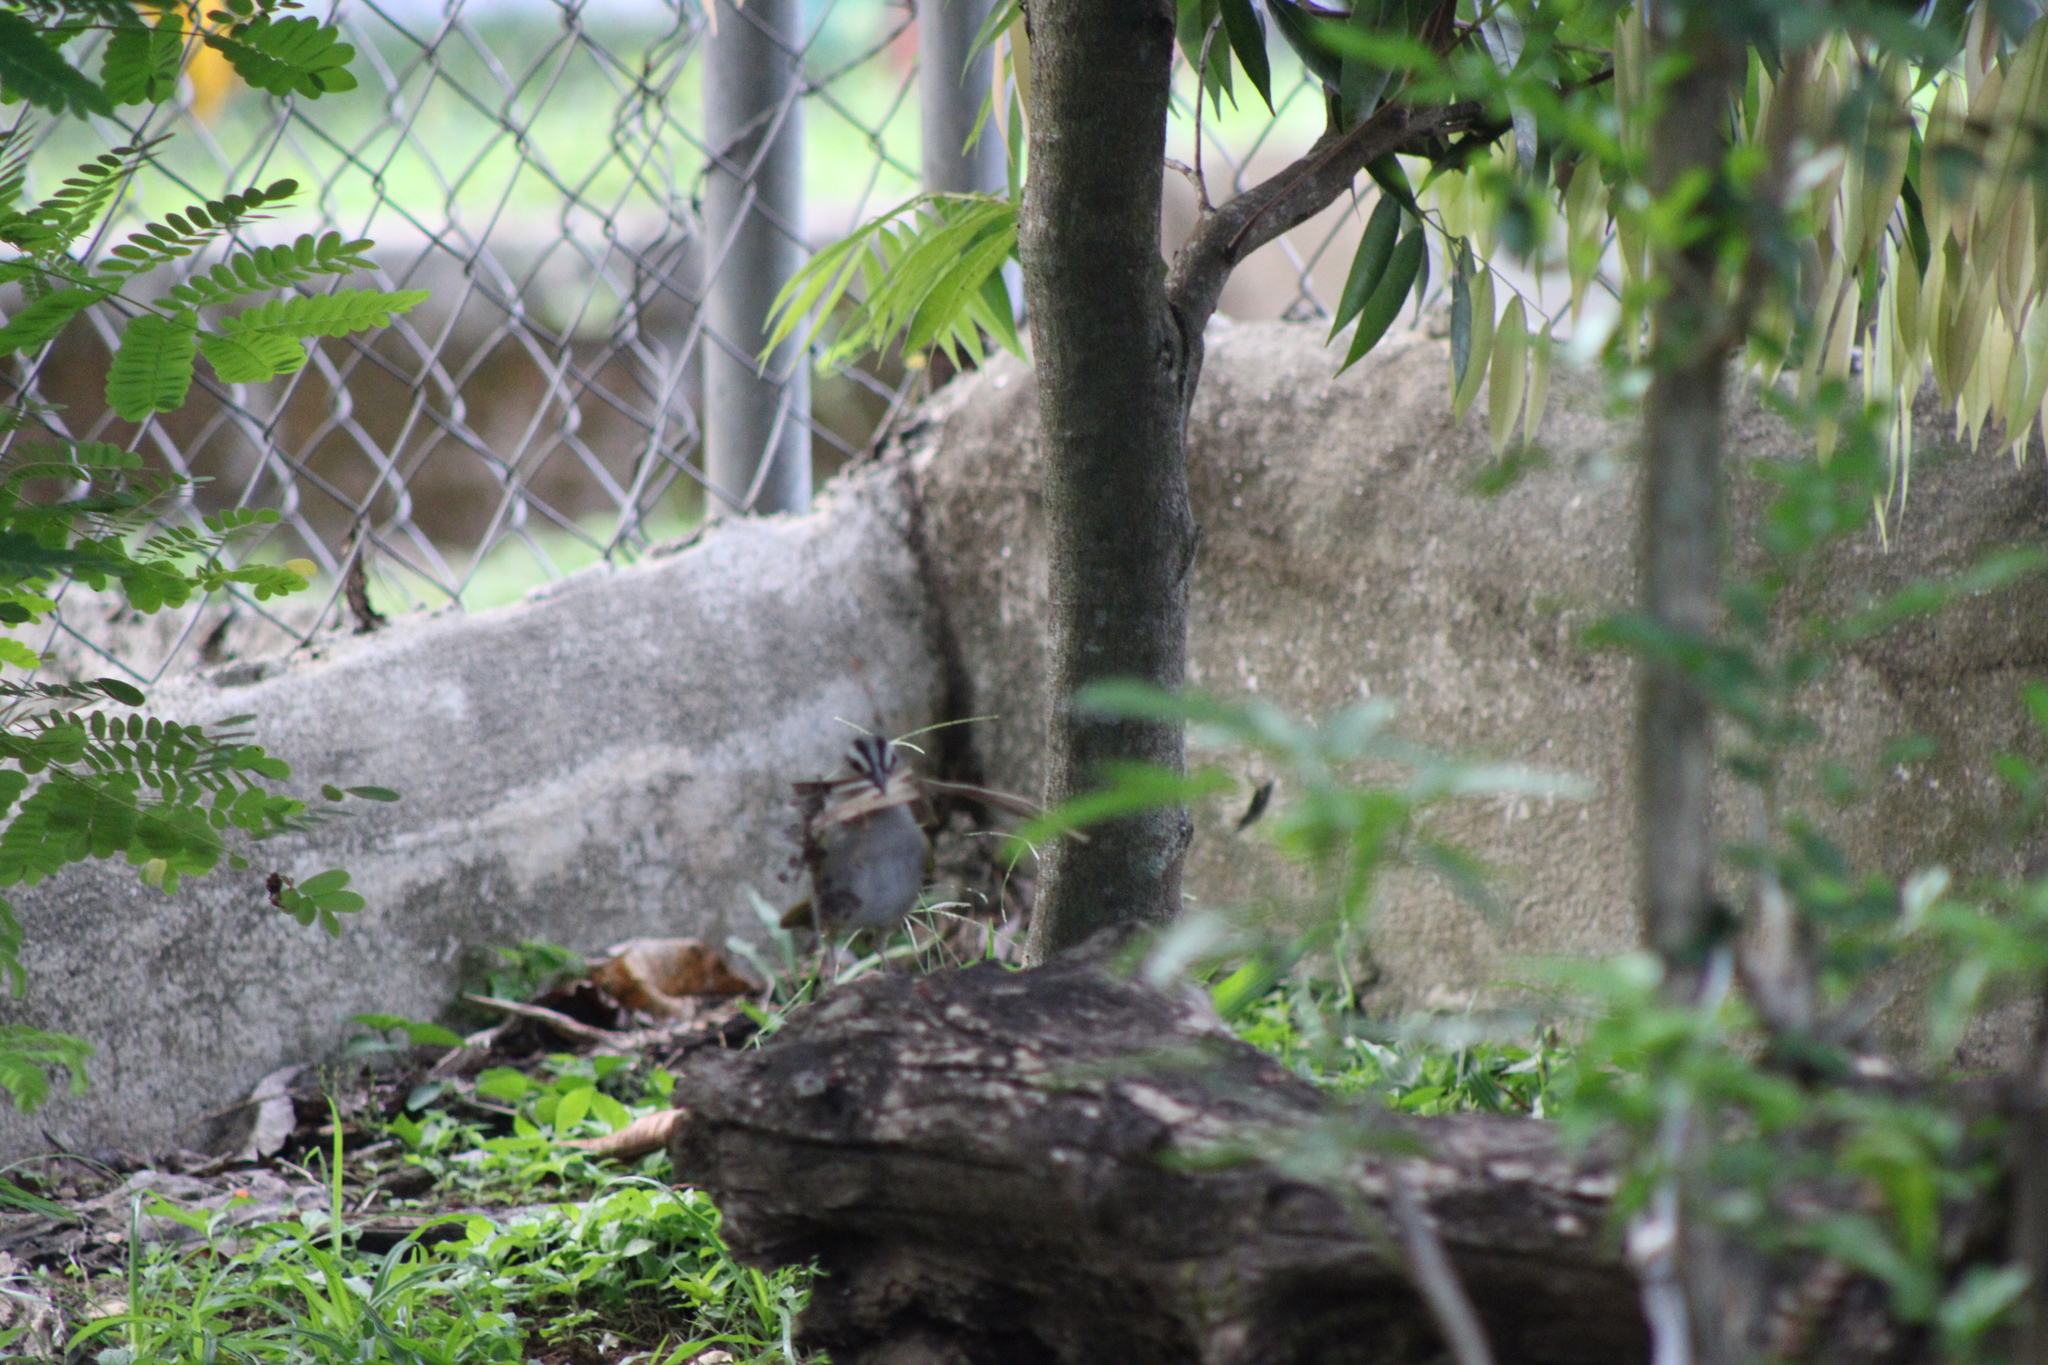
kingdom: Animalia
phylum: Chordata
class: Aves
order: Passeriformes
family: Passerellidae
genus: Arremonops
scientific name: Arremonops conirostris
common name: Black-striped sparrow
